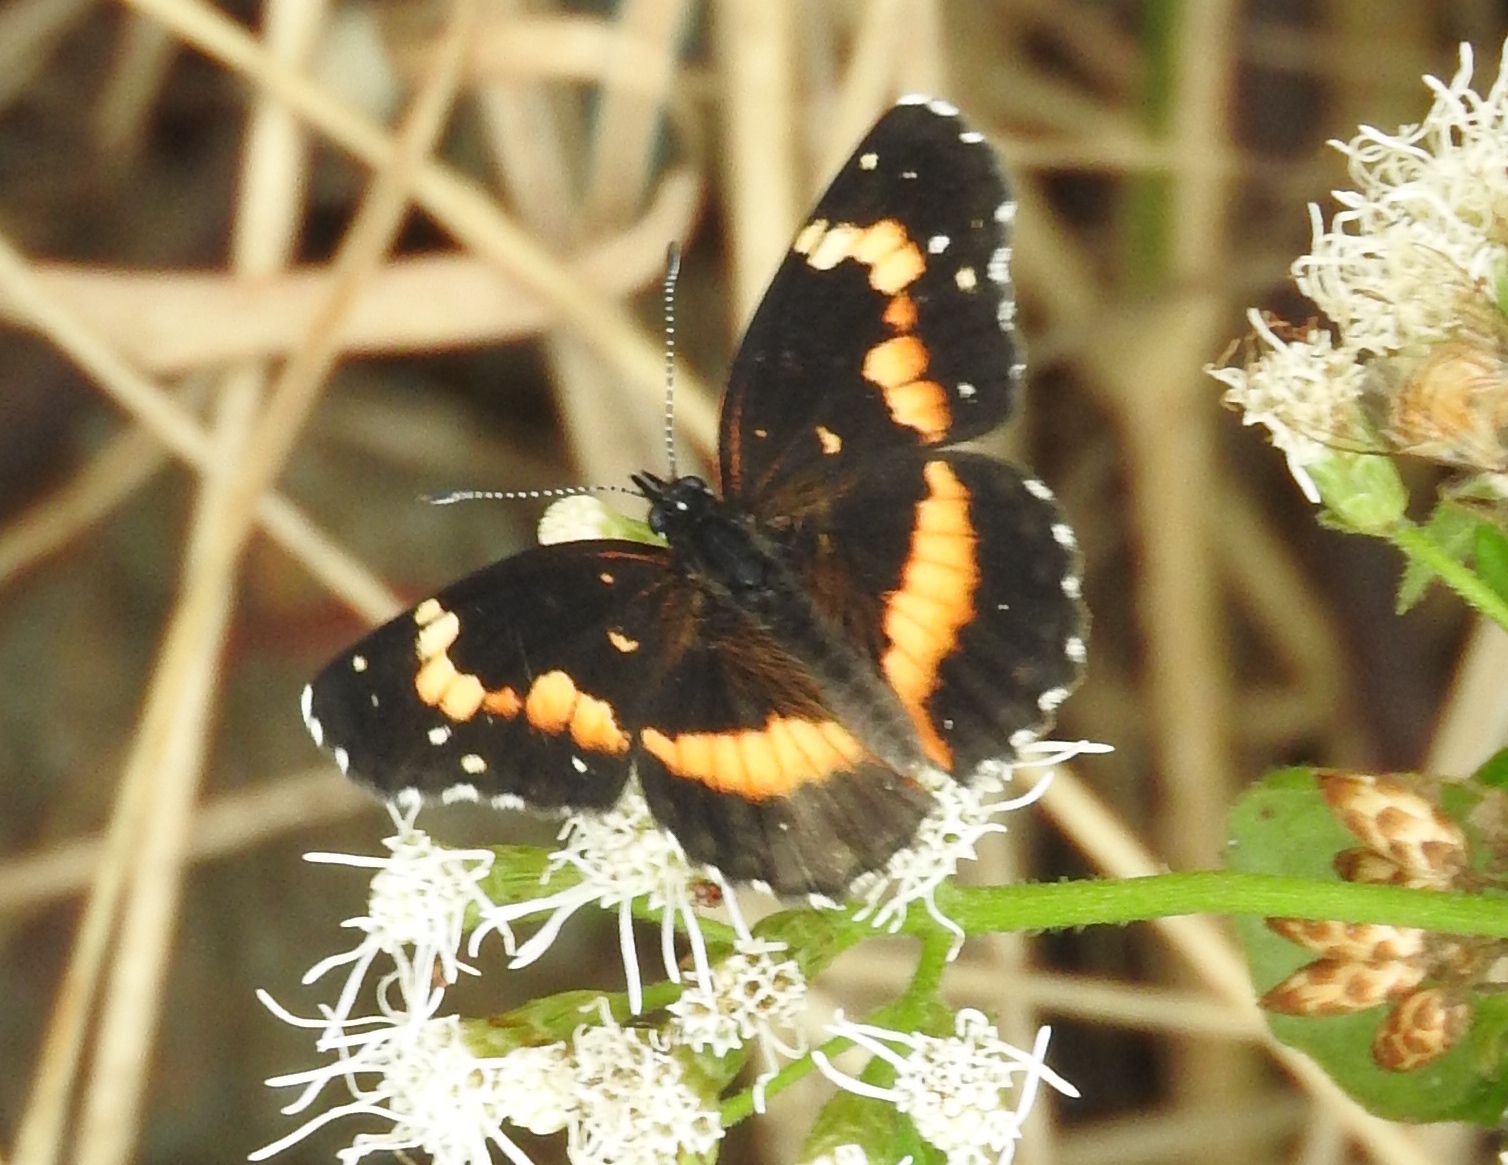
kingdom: Animalia
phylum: Arthropoda
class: Insecta
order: Lepidoptera
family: Nymphalidae
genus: Chlosyne
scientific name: Chlosyne lacinia
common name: Bordered patch
